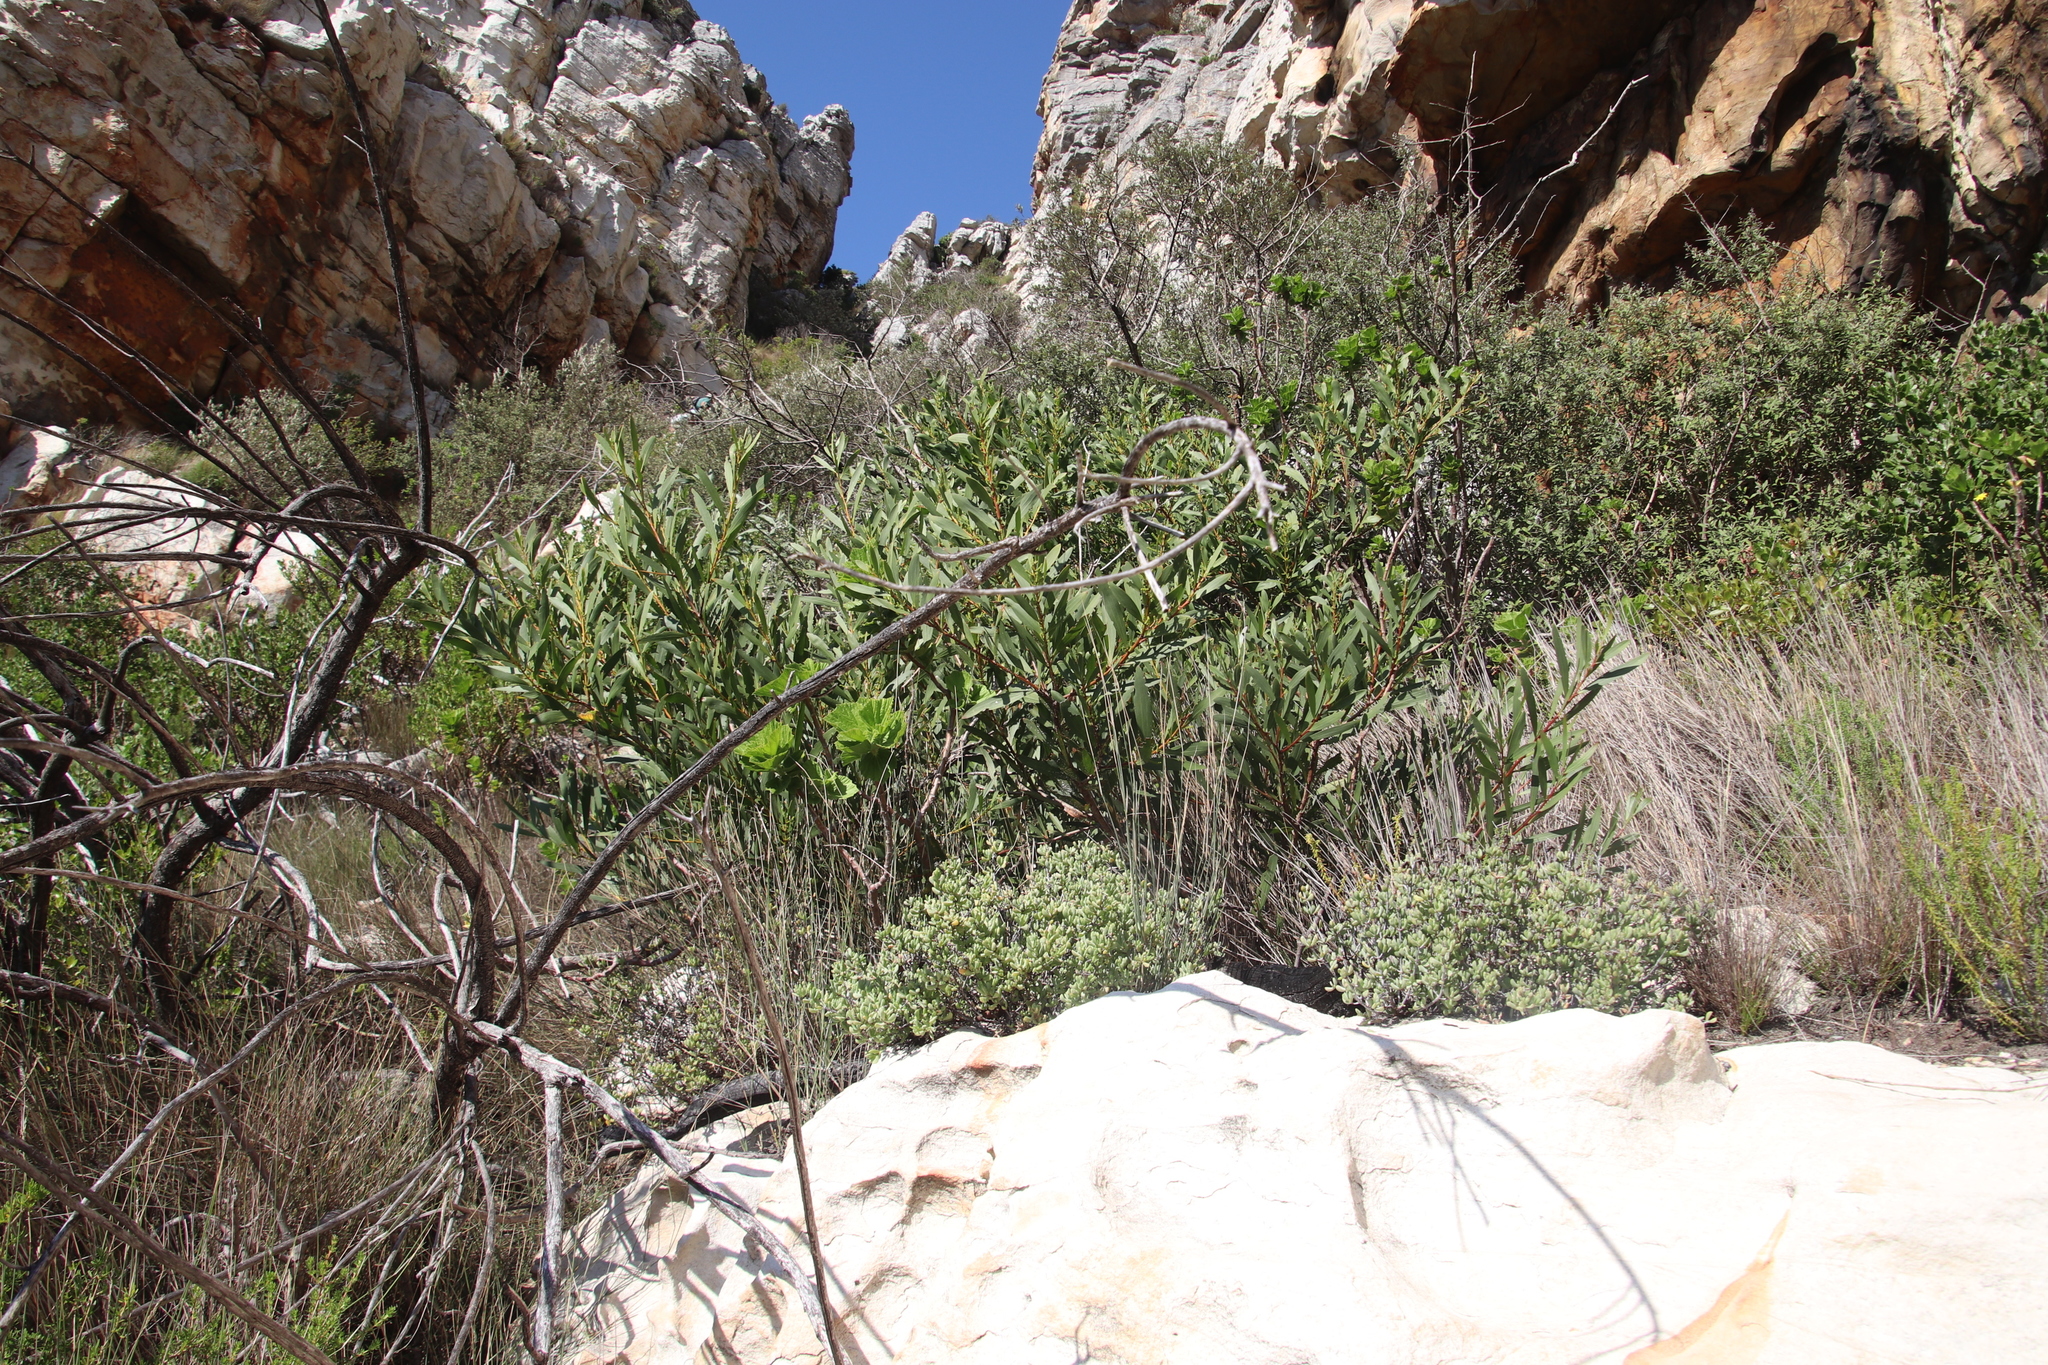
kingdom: Plantae
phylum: Tracheophyta
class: Magnoliopsida
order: Fabales
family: Fabaceae
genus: Acacia
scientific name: Acacia longifolia
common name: Sydney golden wattle
